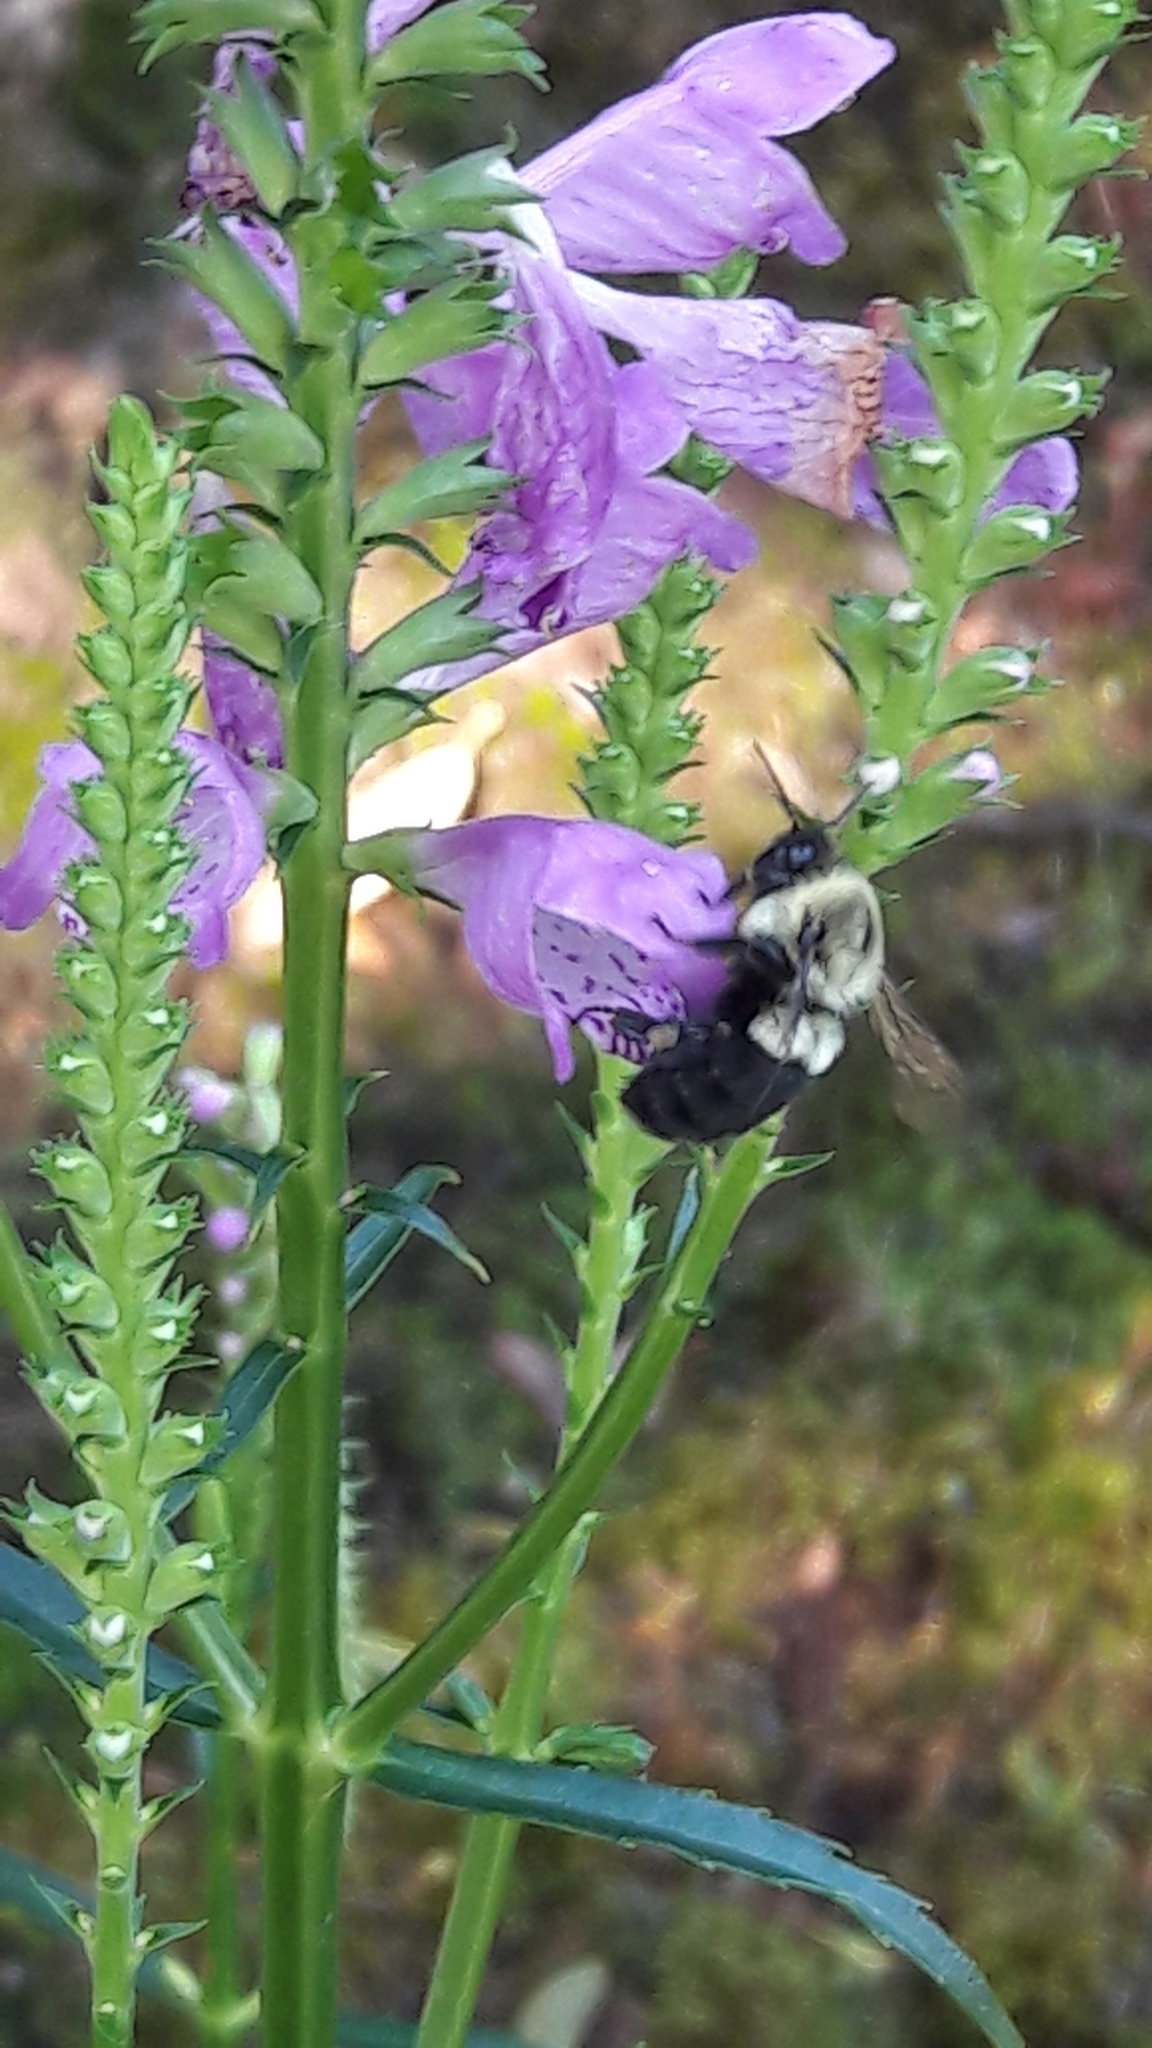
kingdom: Animalia
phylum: Arthropoda
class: Insecta
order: Hymenoptera
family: Apidae
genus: Bombus
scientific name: Bombus impatiens
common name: Common eastern bumble bee
